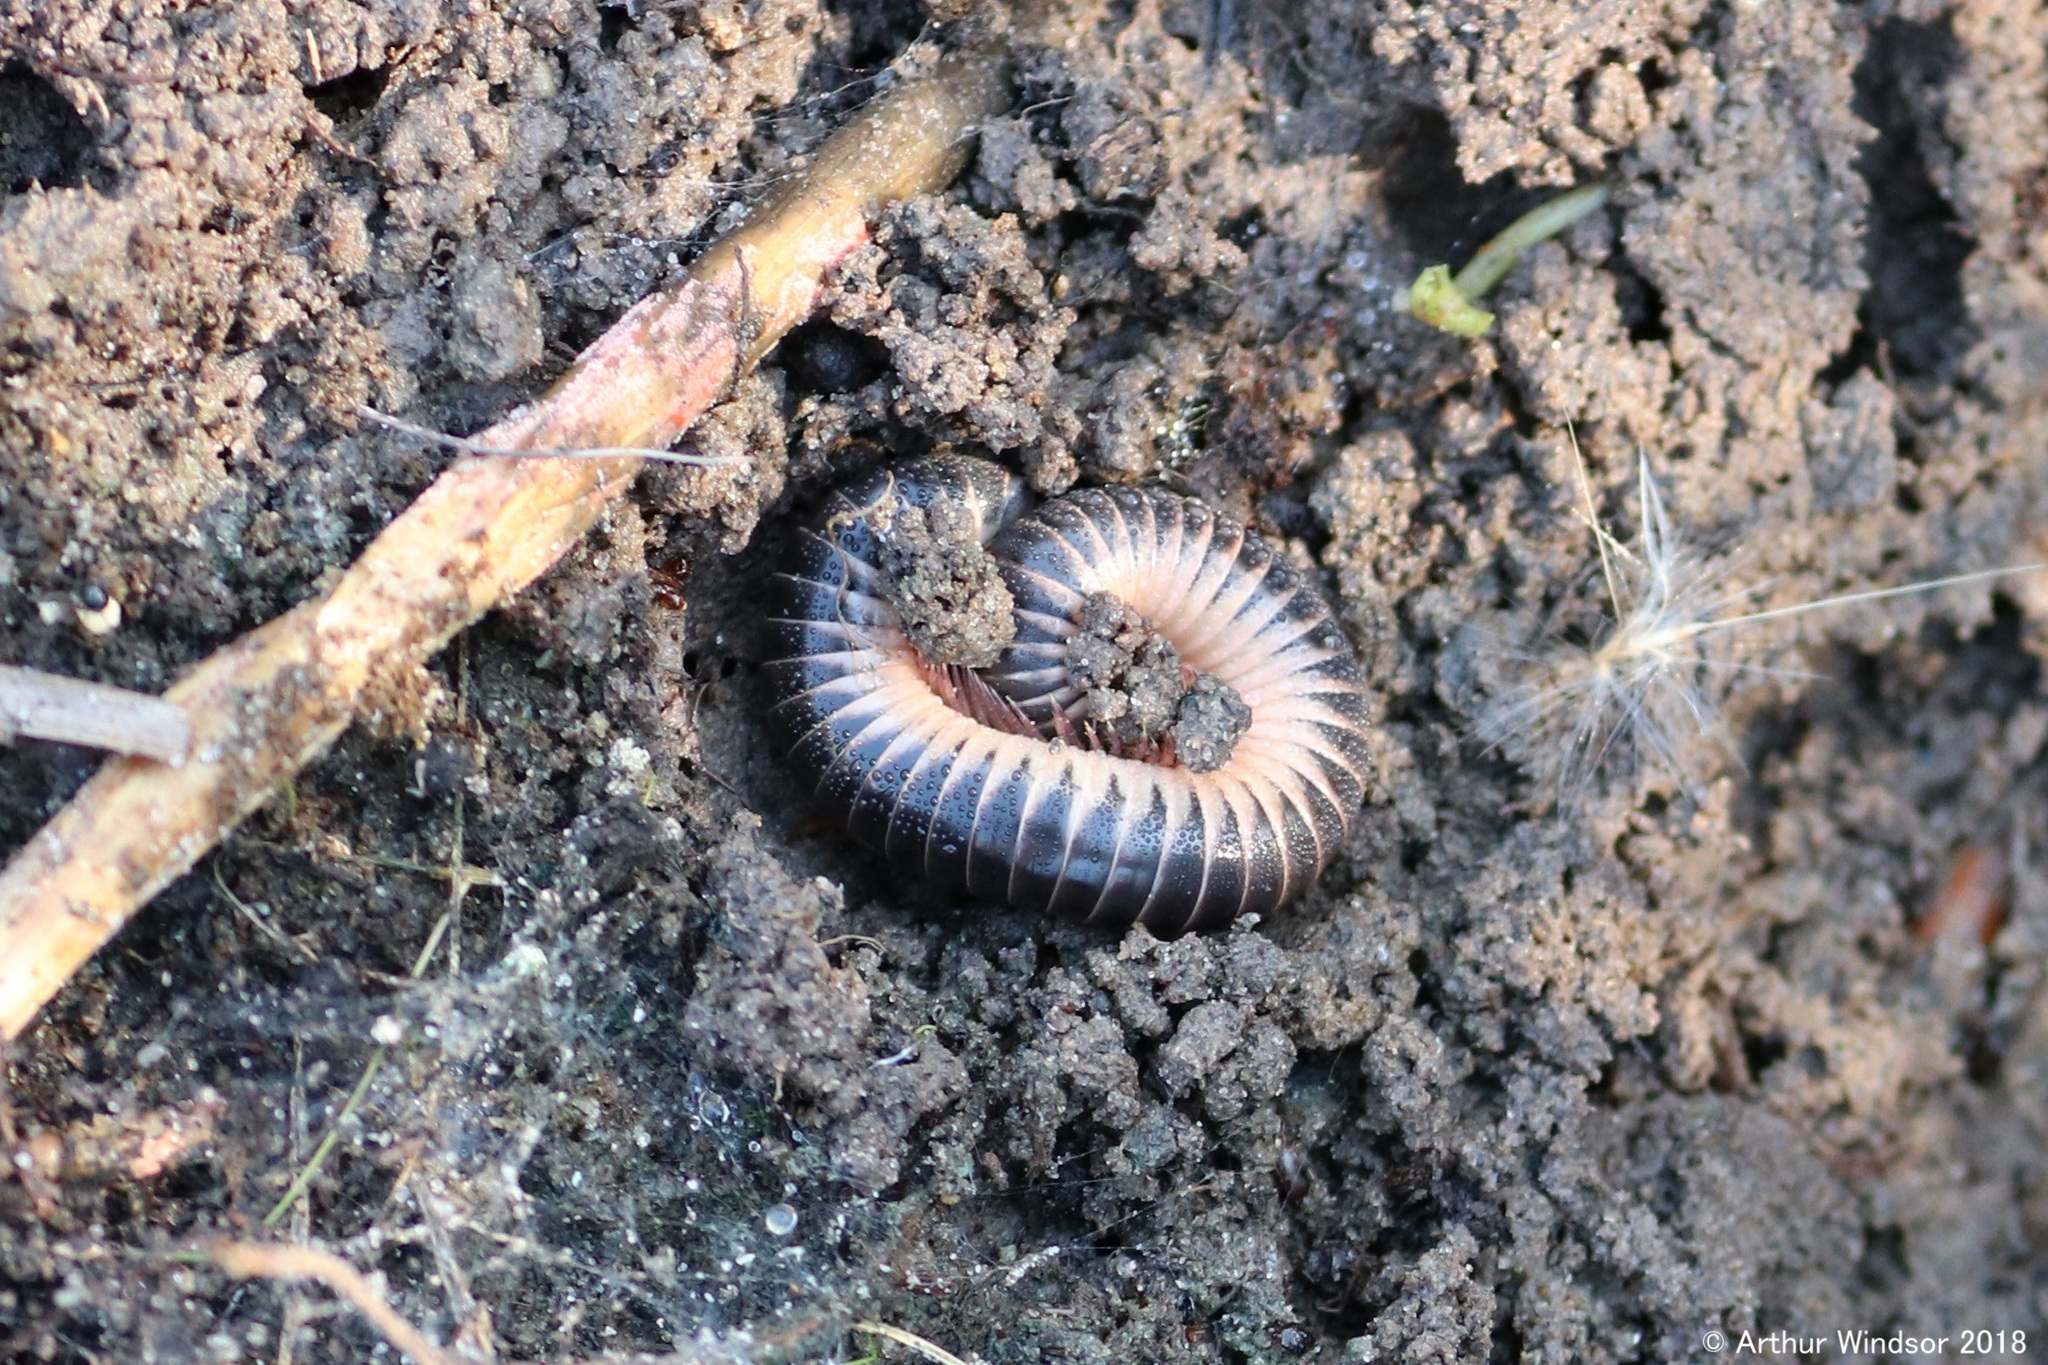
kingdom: Animalia
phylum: Arthropoda
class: Diplopoda
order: Spirobolida
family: Spirobolidae
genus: Chicobolus
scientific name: Chicobolus spinigerus
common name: Florida ivory millipede
